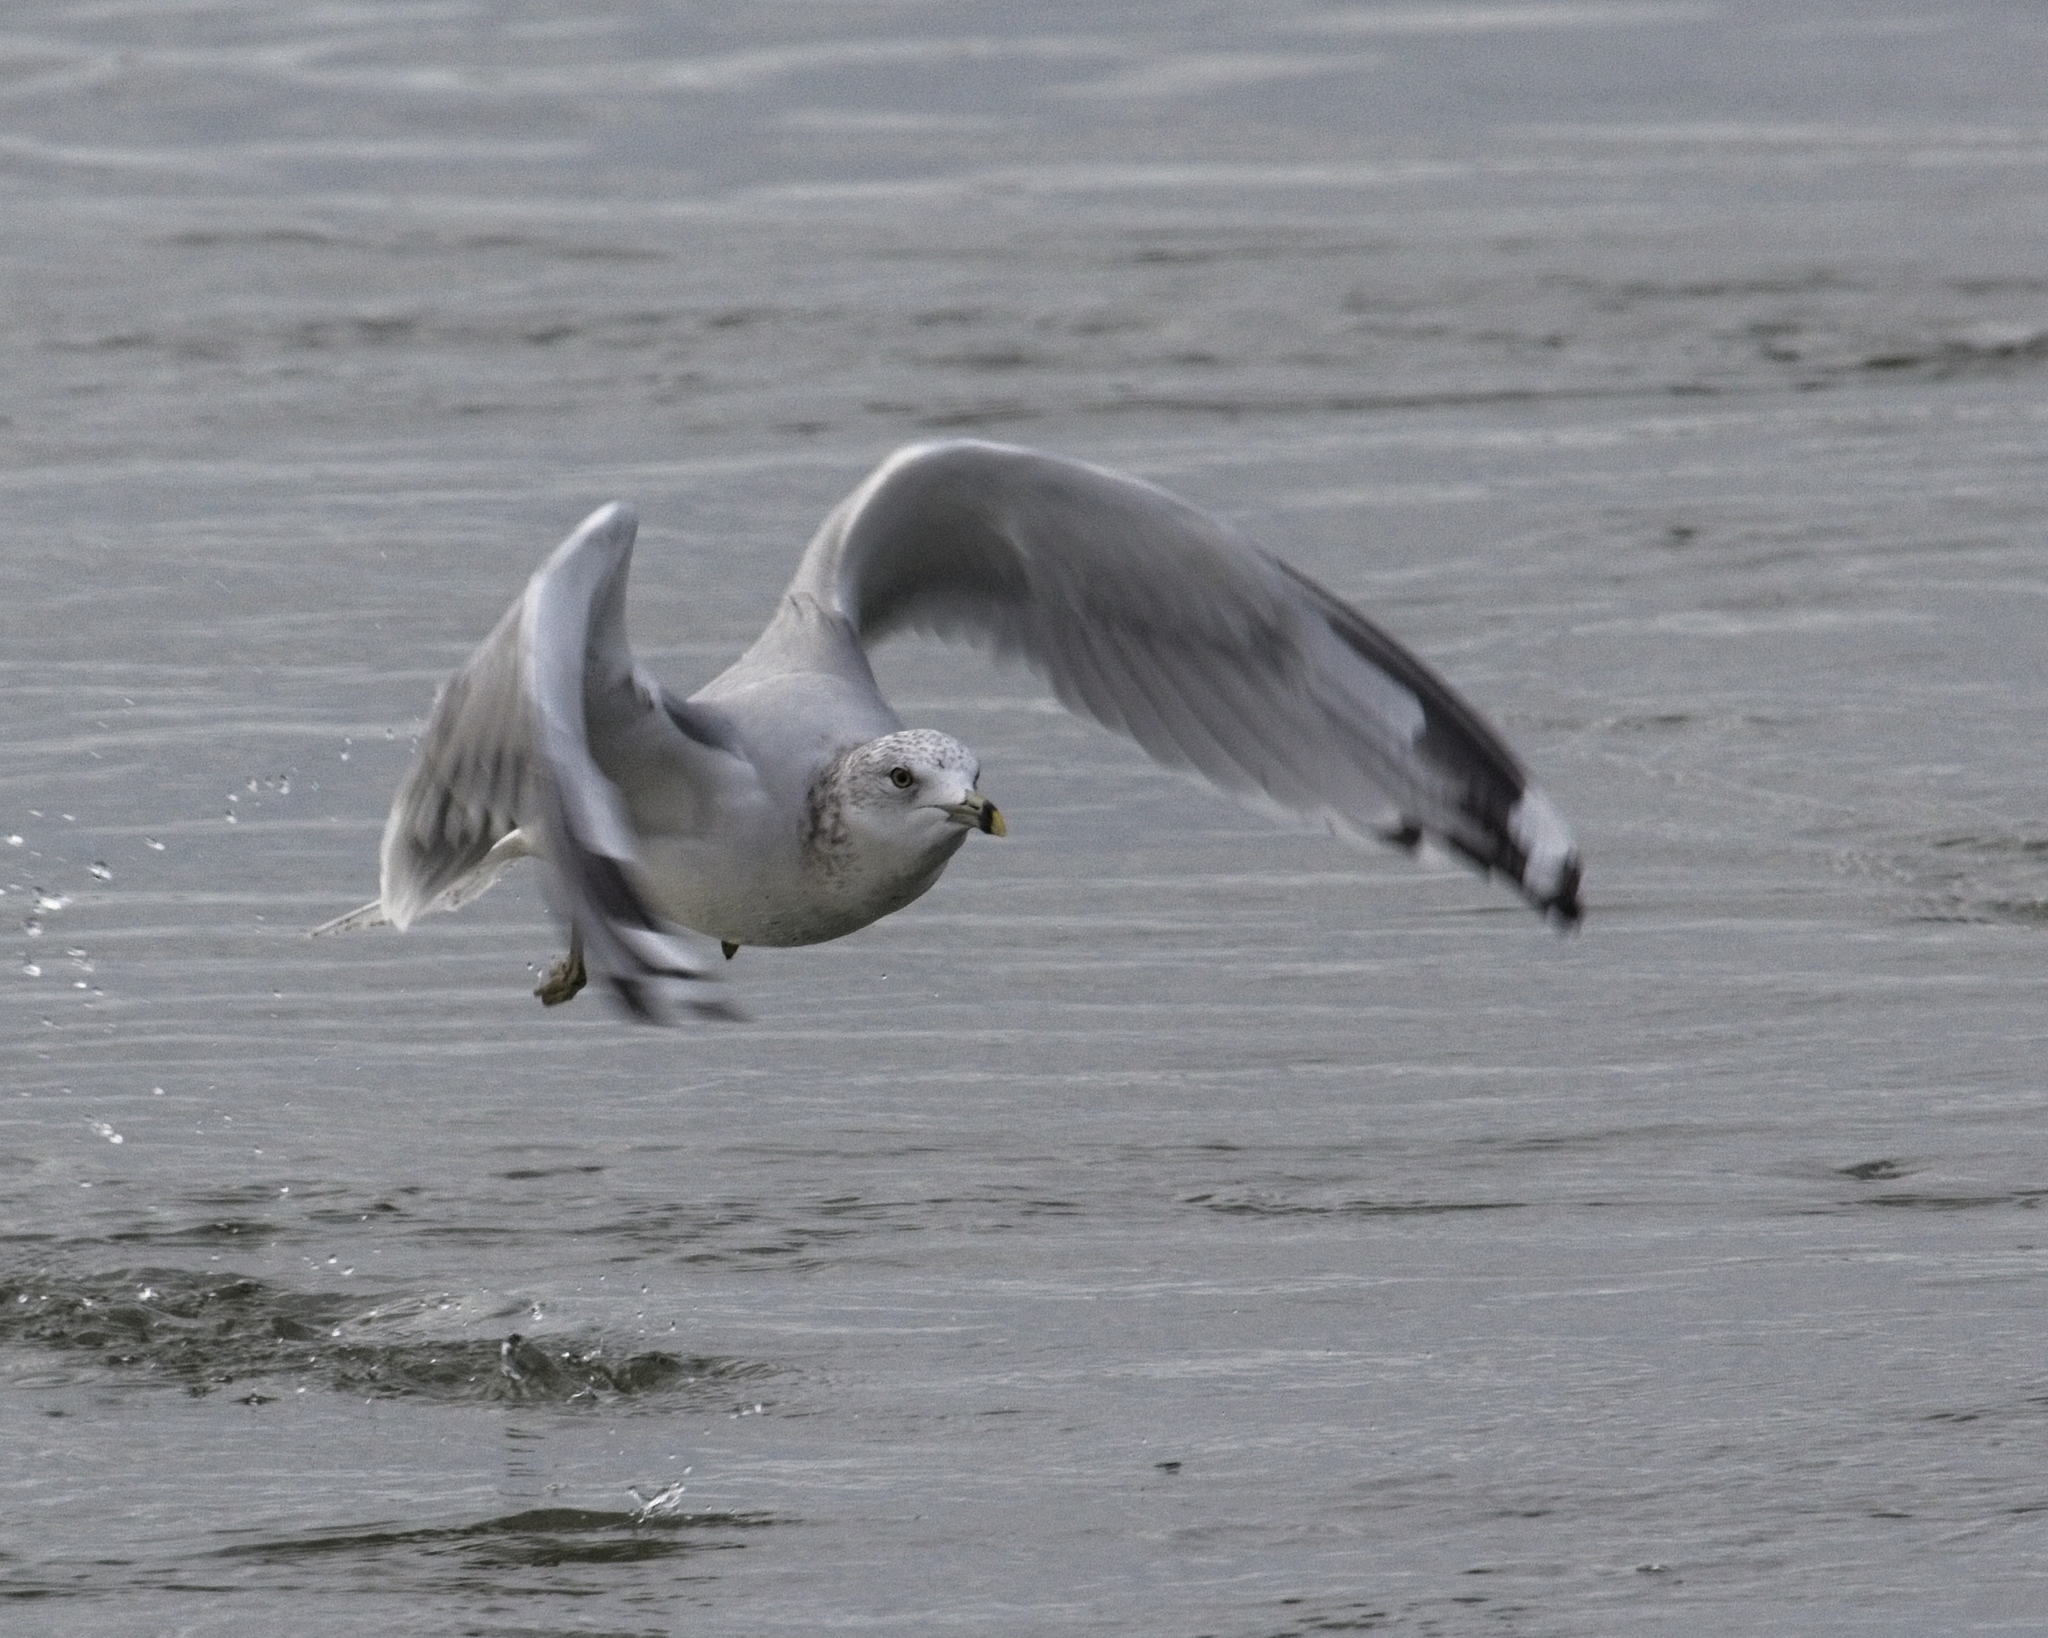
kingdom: Animalia
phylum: Chordata
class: Aves
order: Charadriiformes
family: Laridae
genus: Larus
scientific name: Larus delawarensis
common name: Ring-billed gull
